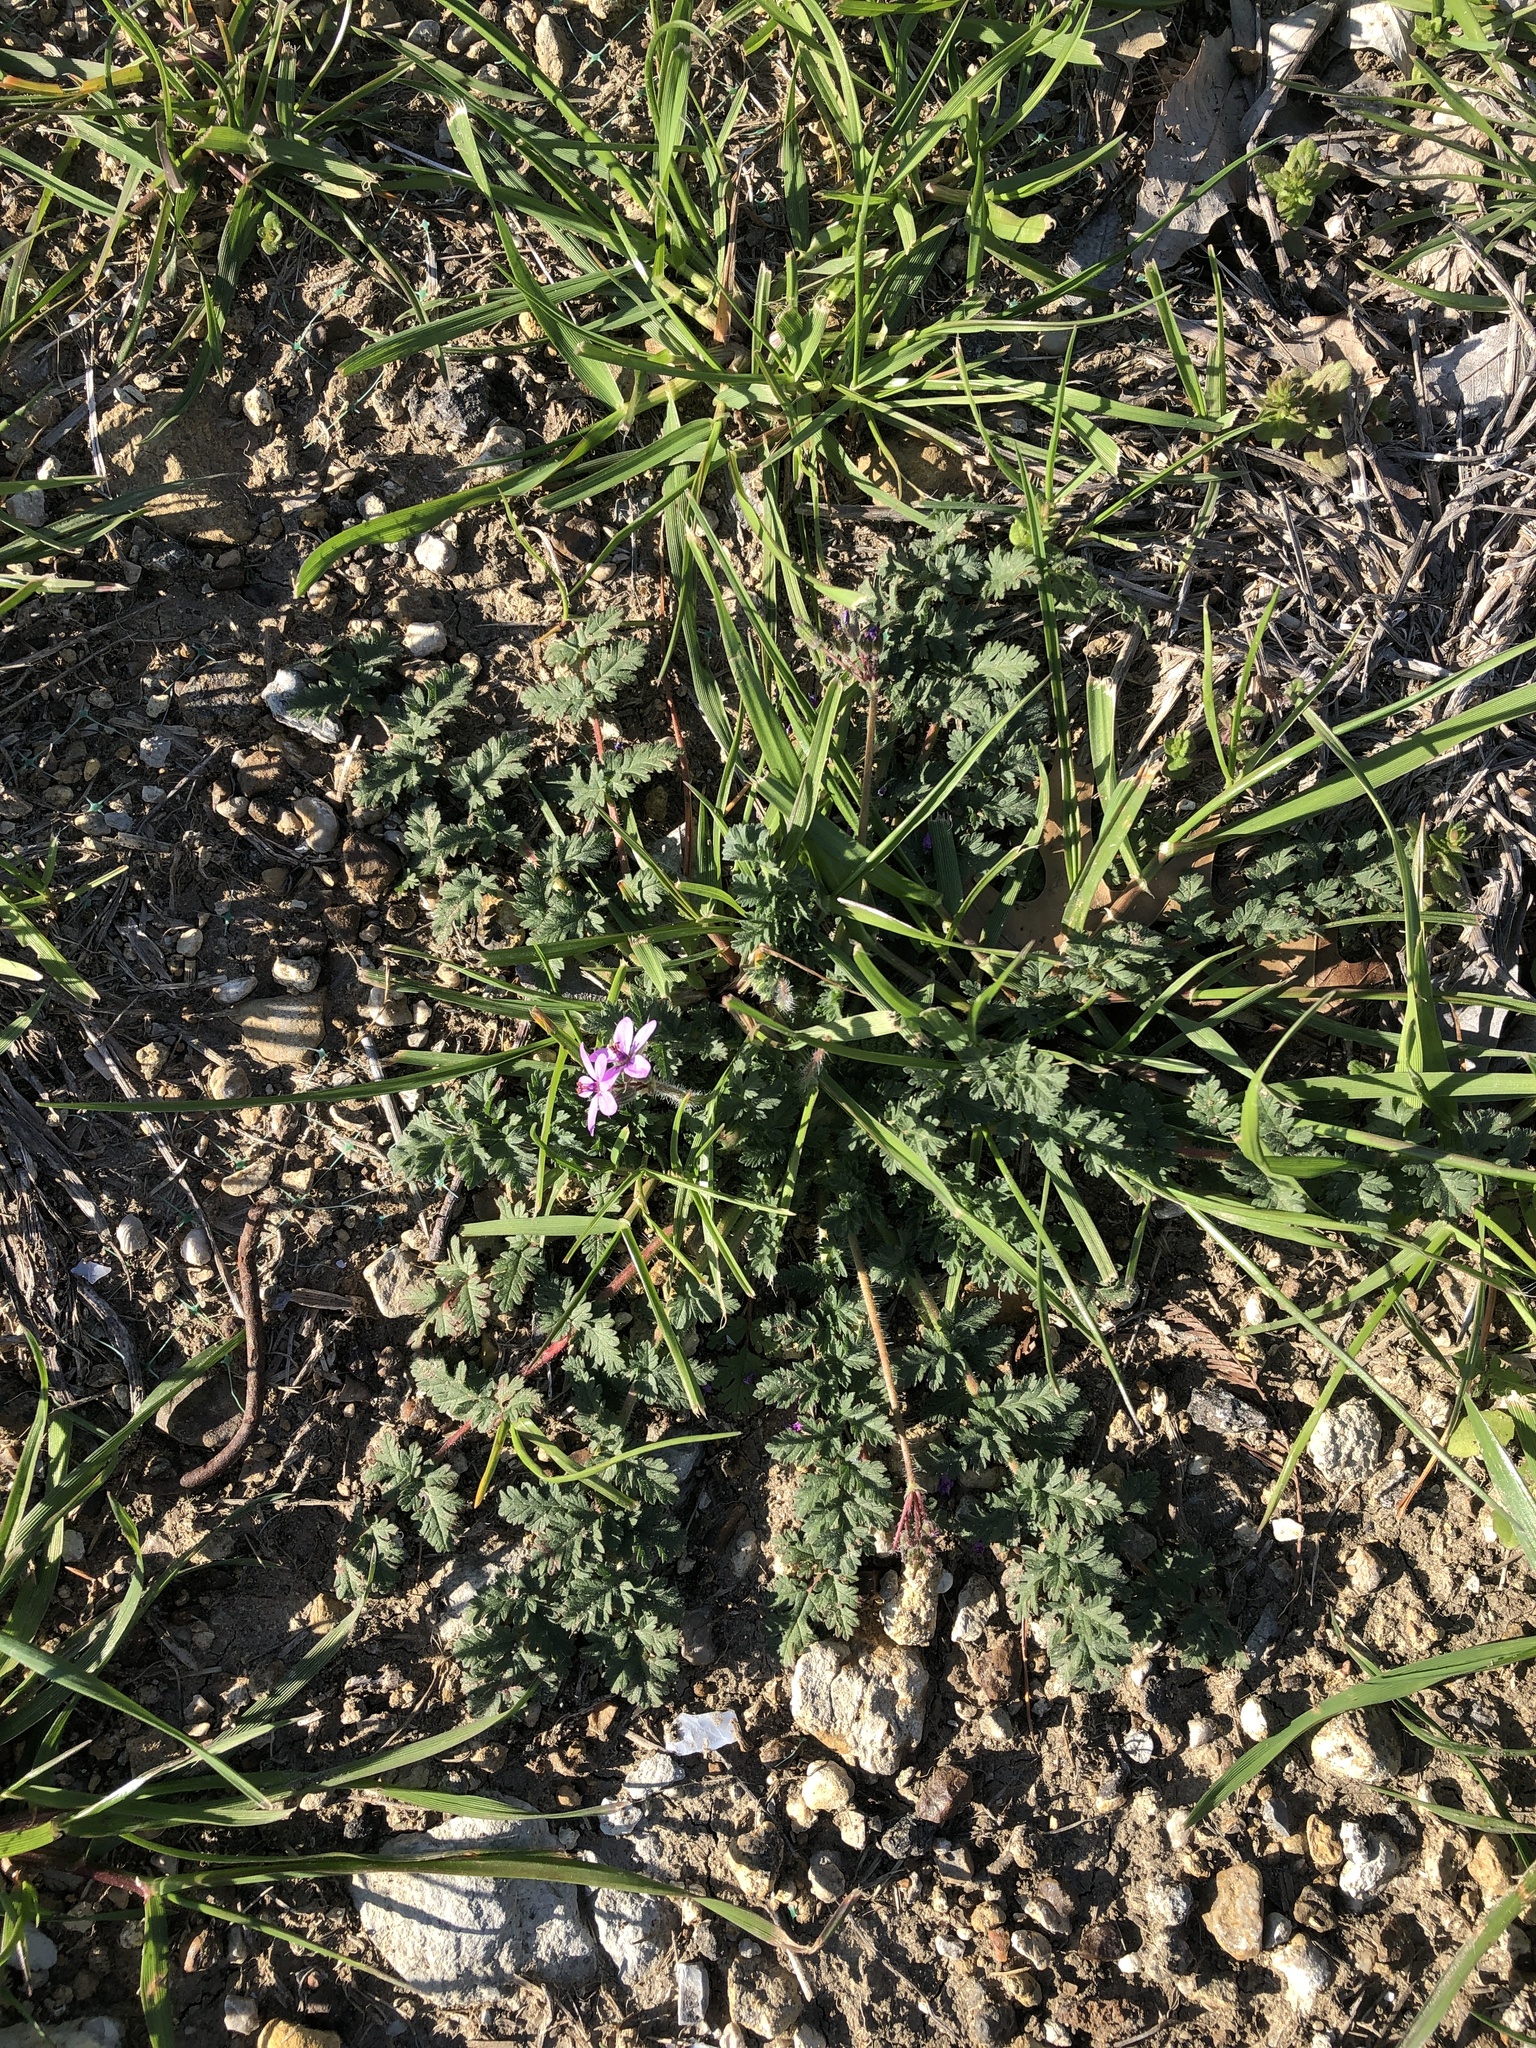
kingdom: Plantae
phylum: Tracheophyta
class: Magnoliopsida
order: Geraniales
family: Geraniaceae
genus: Erodium
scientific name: Erodium cicutarium
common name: Common stork's-bill
